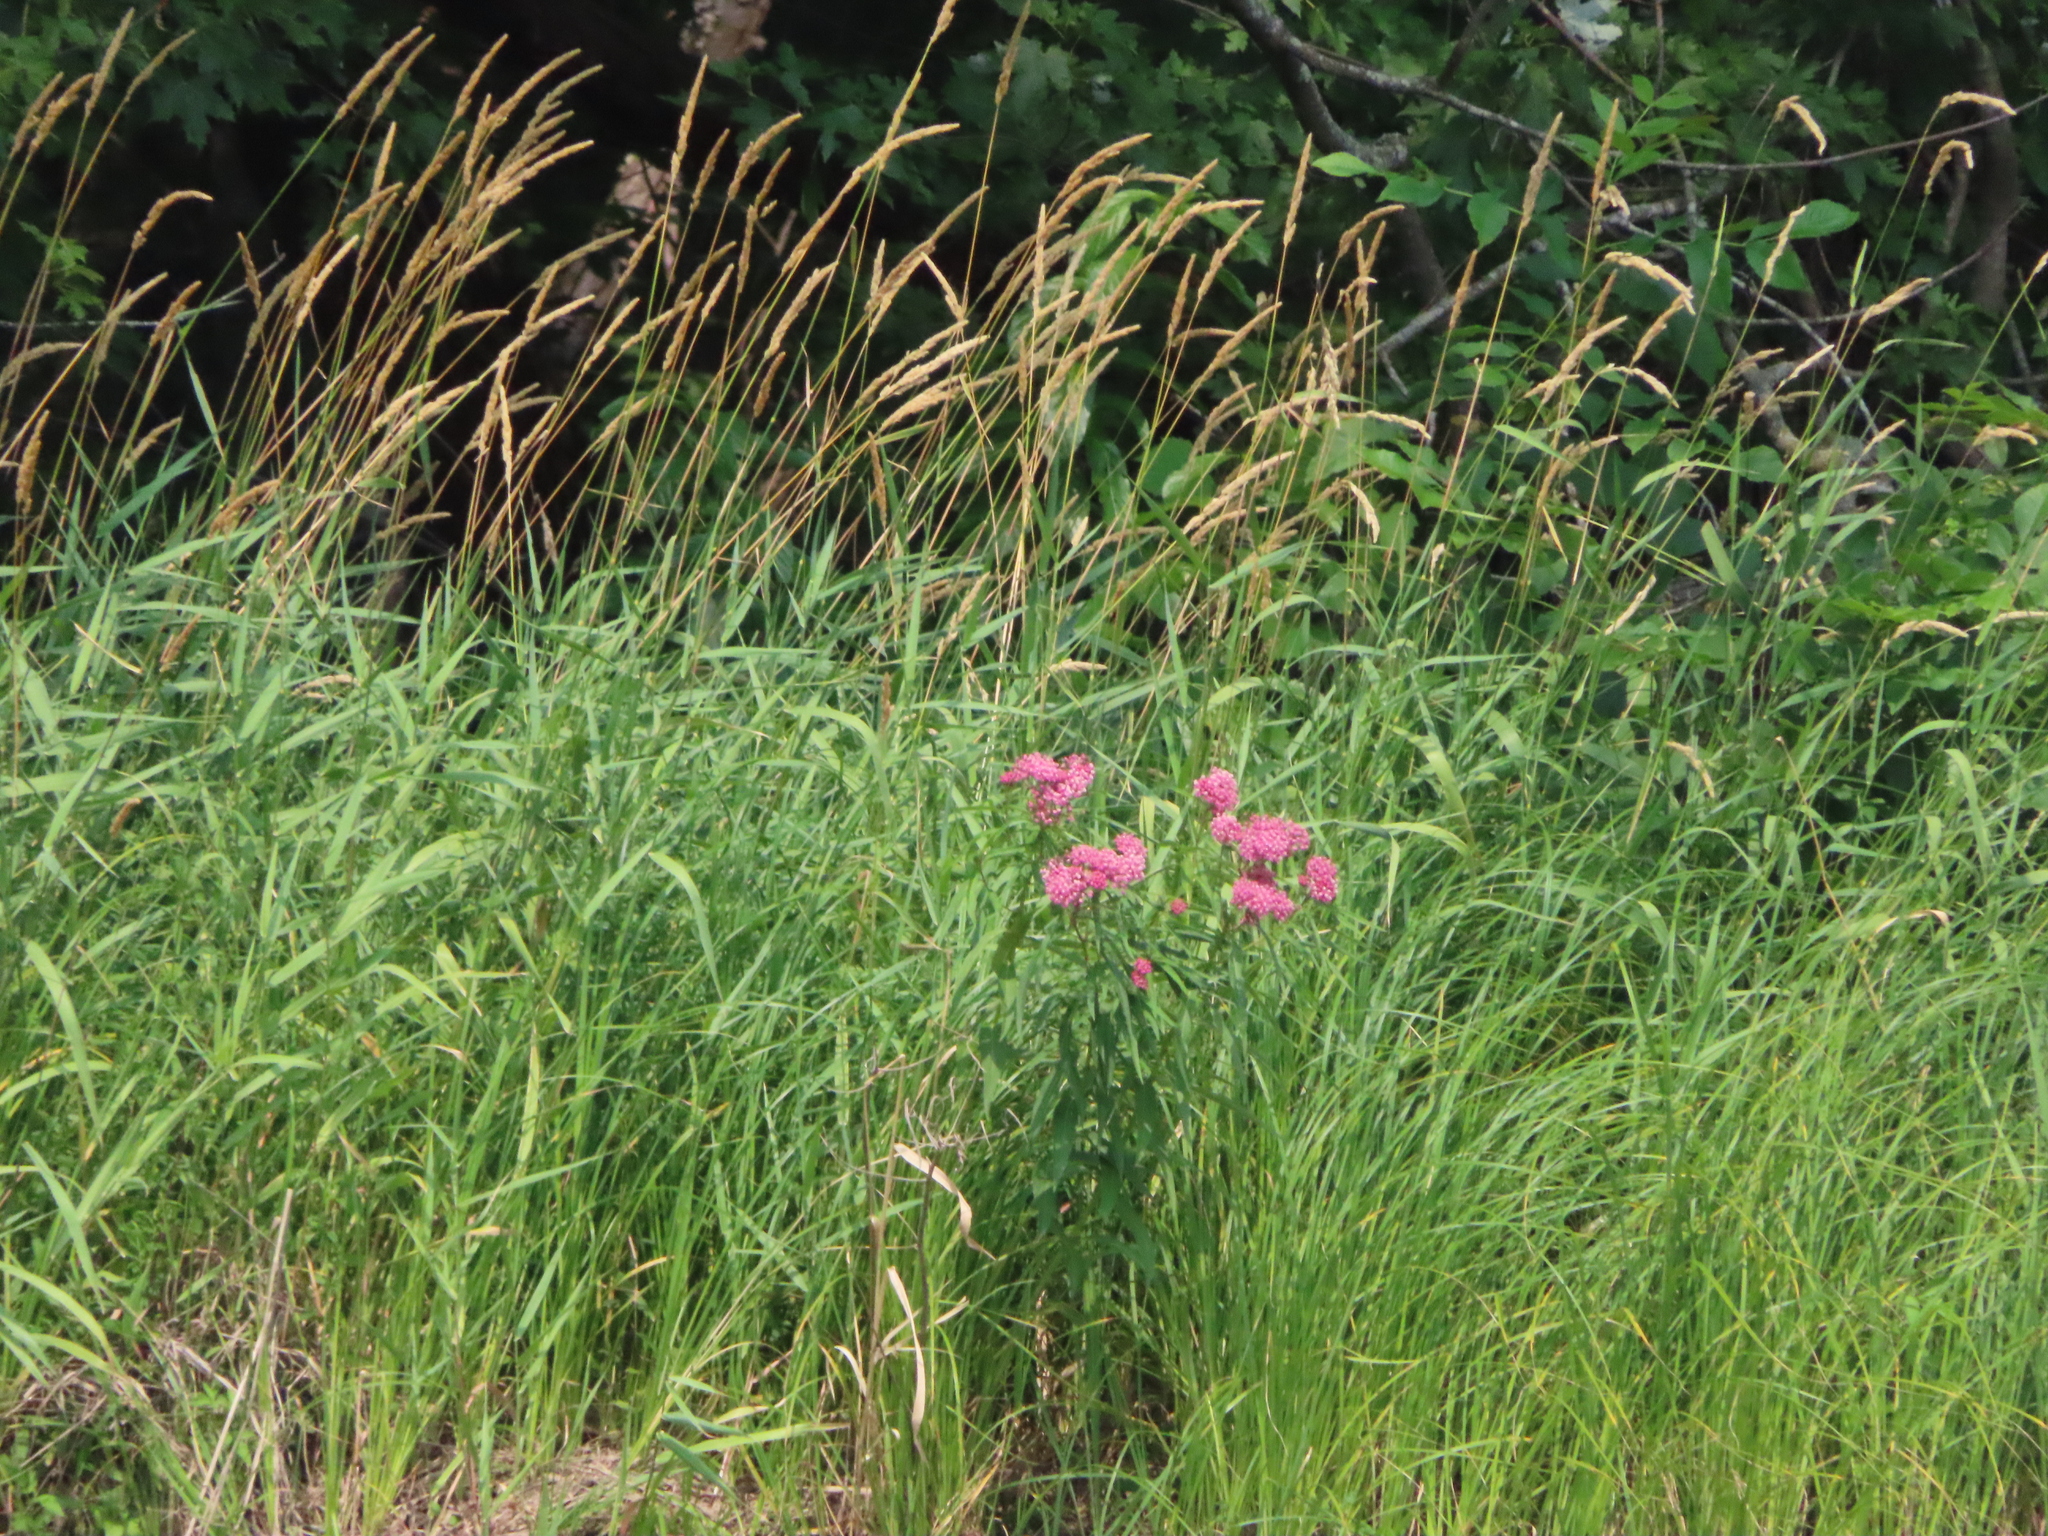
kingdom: Plantae
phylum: Tracheophyta
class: Magnoliopsida
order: Gentianales
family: Apocynaceae
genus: Asclepias
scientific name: Asclepias incarnata
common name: Swamp milkweed
